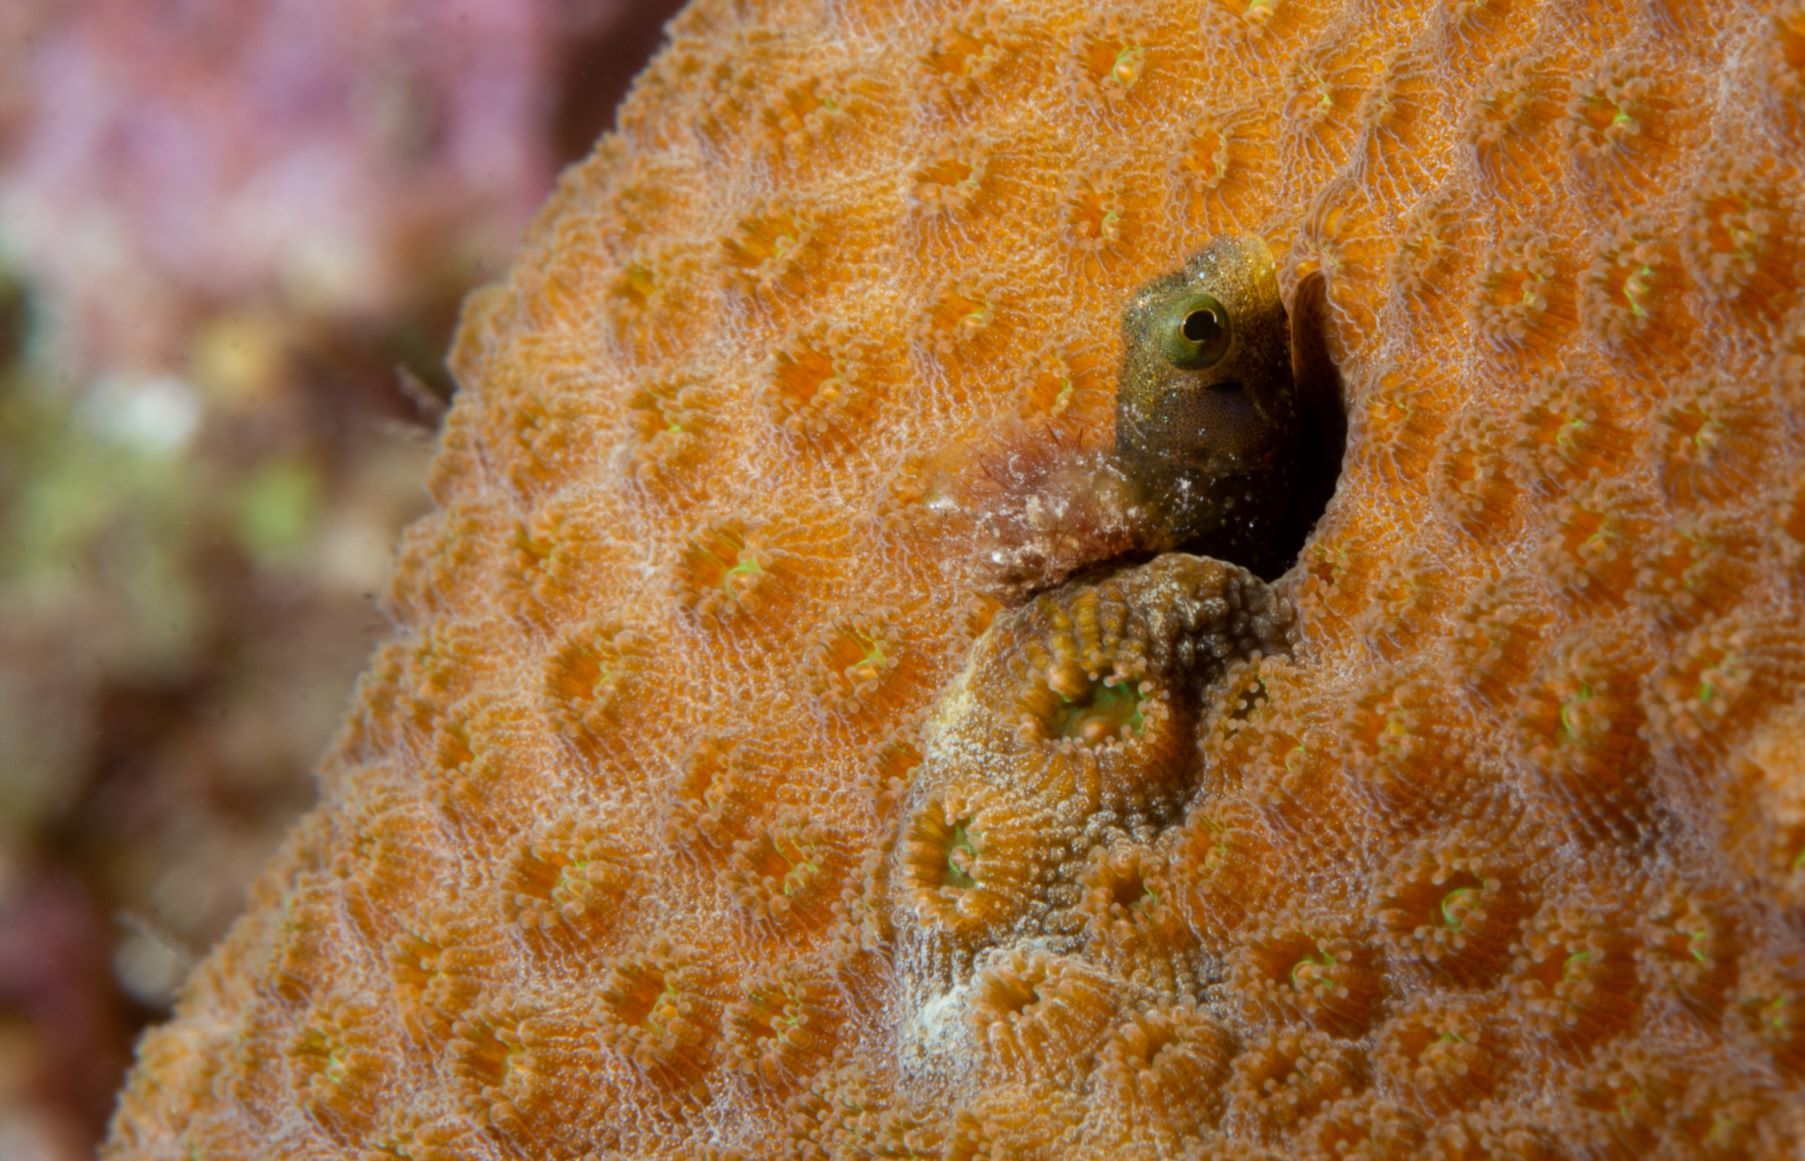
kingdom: Animalia
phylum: Chordata
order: Perciformes
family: Chaenopsidae
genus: Acanthemblemaria
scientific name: Acanthemblemaria spinosa
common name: Spinyhead blenny
